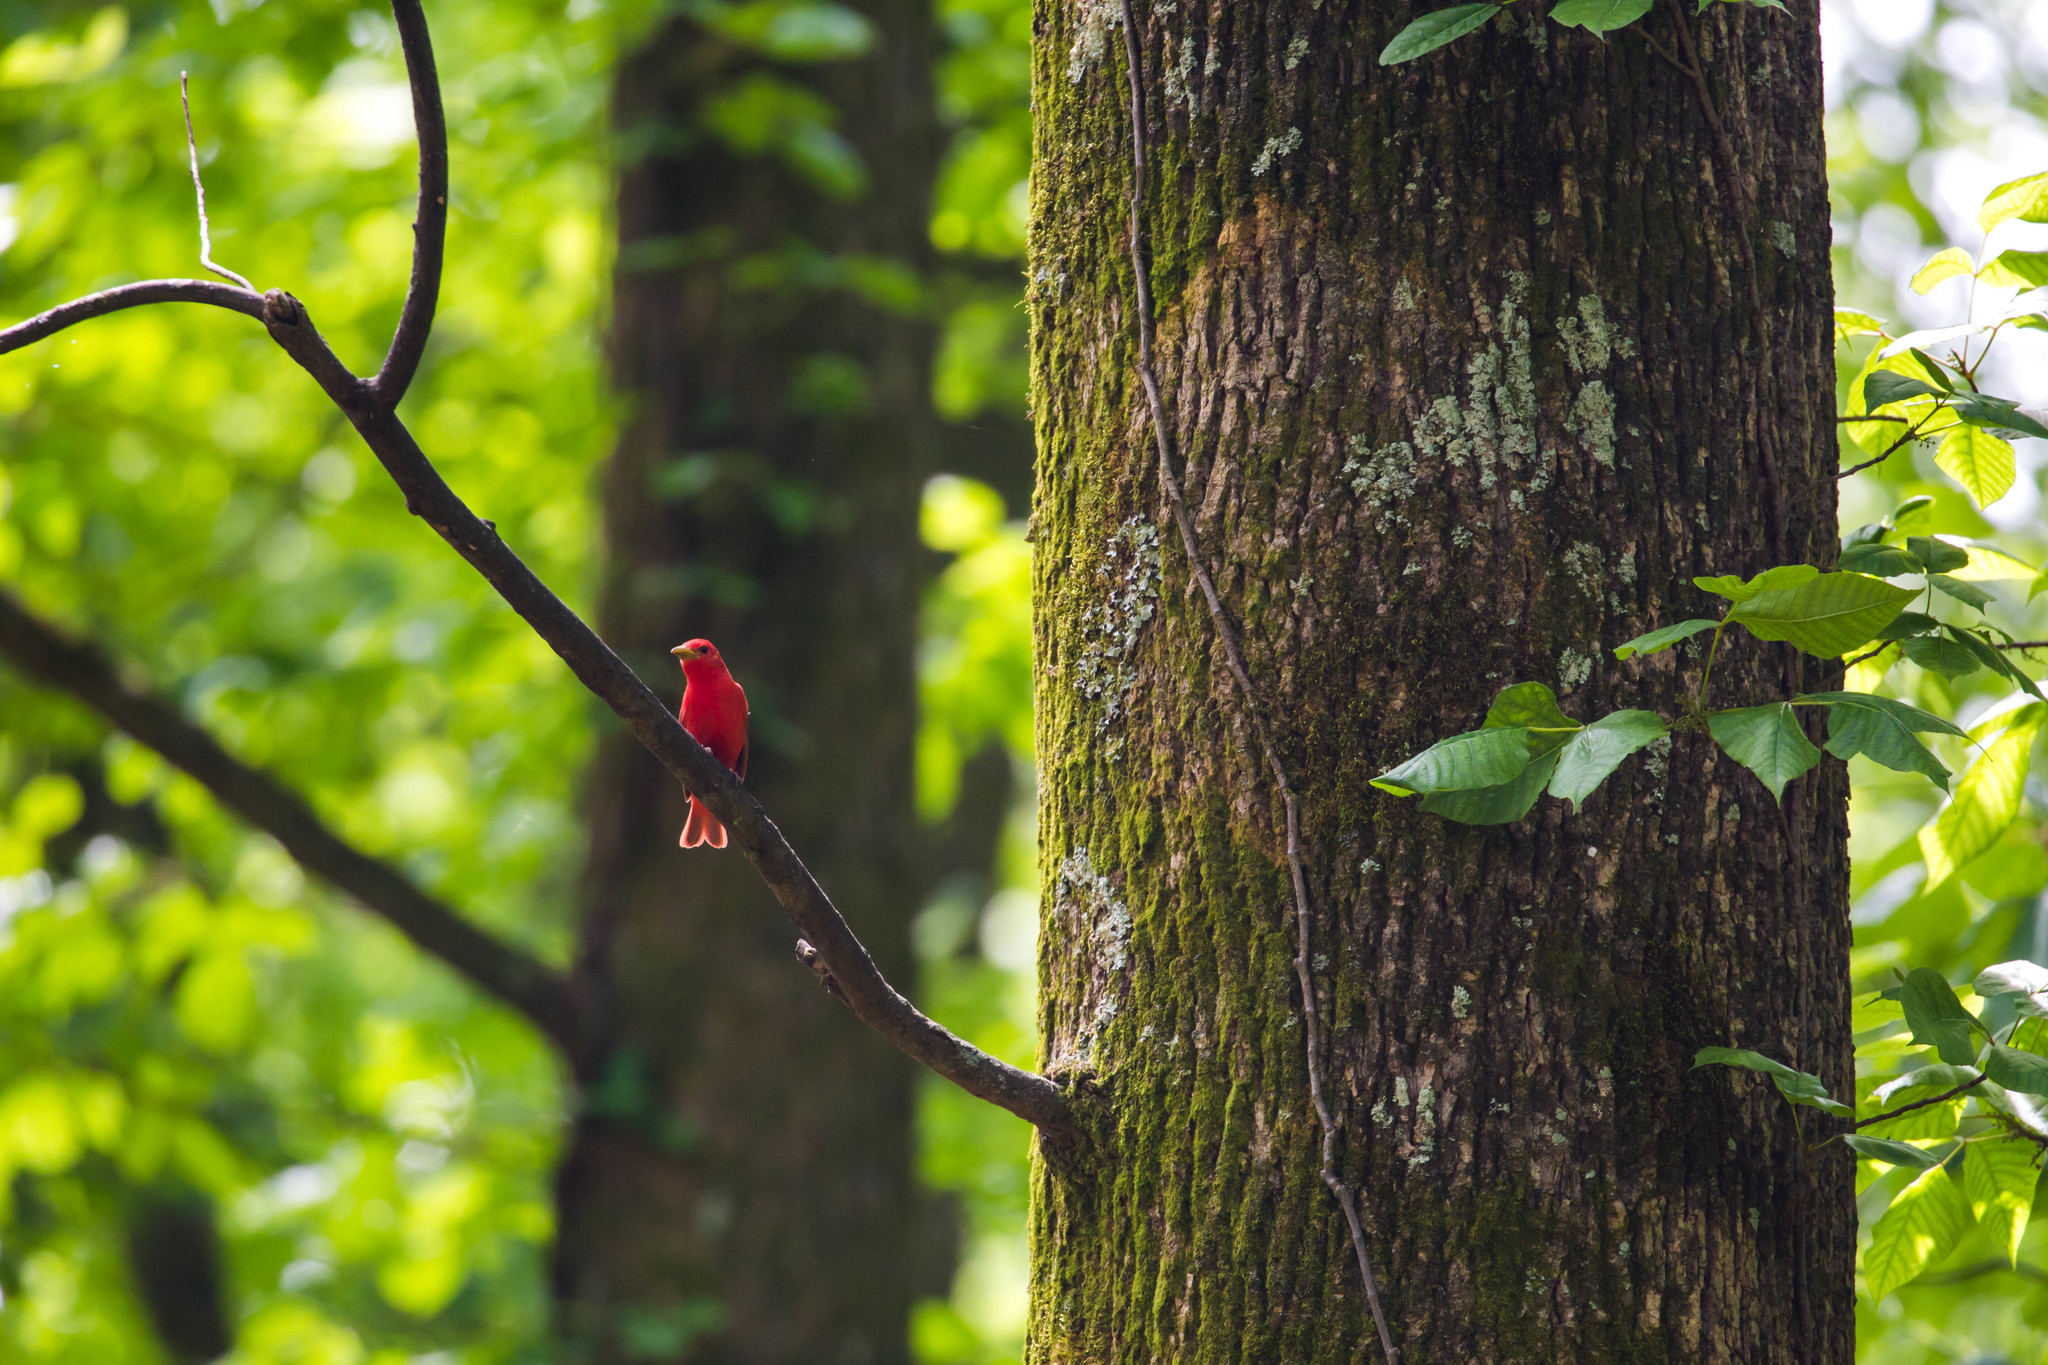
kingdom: Animalia
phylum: Chordata
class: Aves
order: Passeriformes
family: Cardinalidae
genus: Piranga
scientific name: Piranga rubra
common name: Summer tanager
